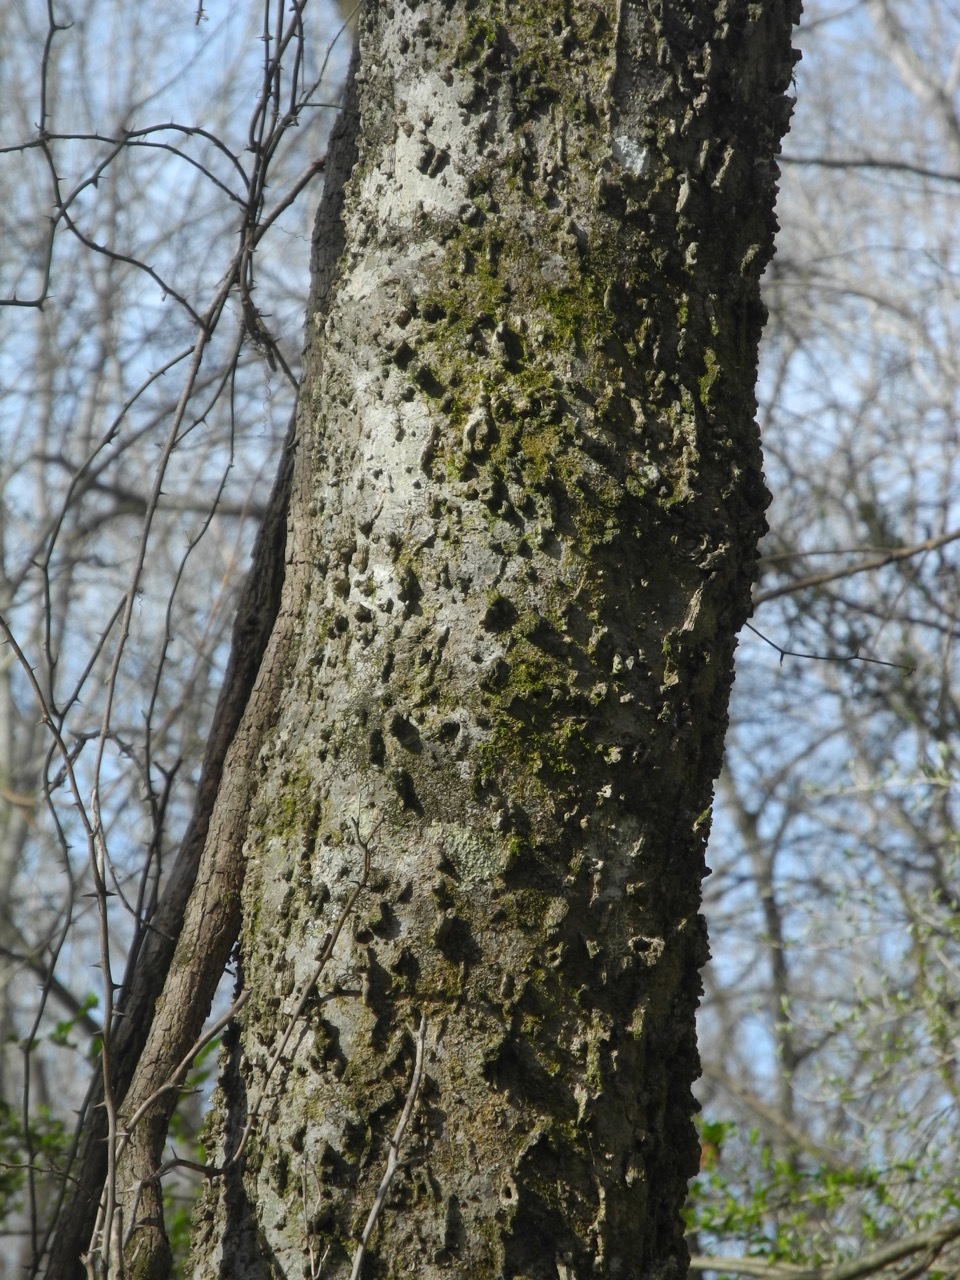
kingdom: Plantae
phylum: Tracheophyta
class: Magnoliopsida
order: Rosales
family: Cannabaceae
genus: Celtis
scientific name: Celtis laevigata
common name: Sugarberry
